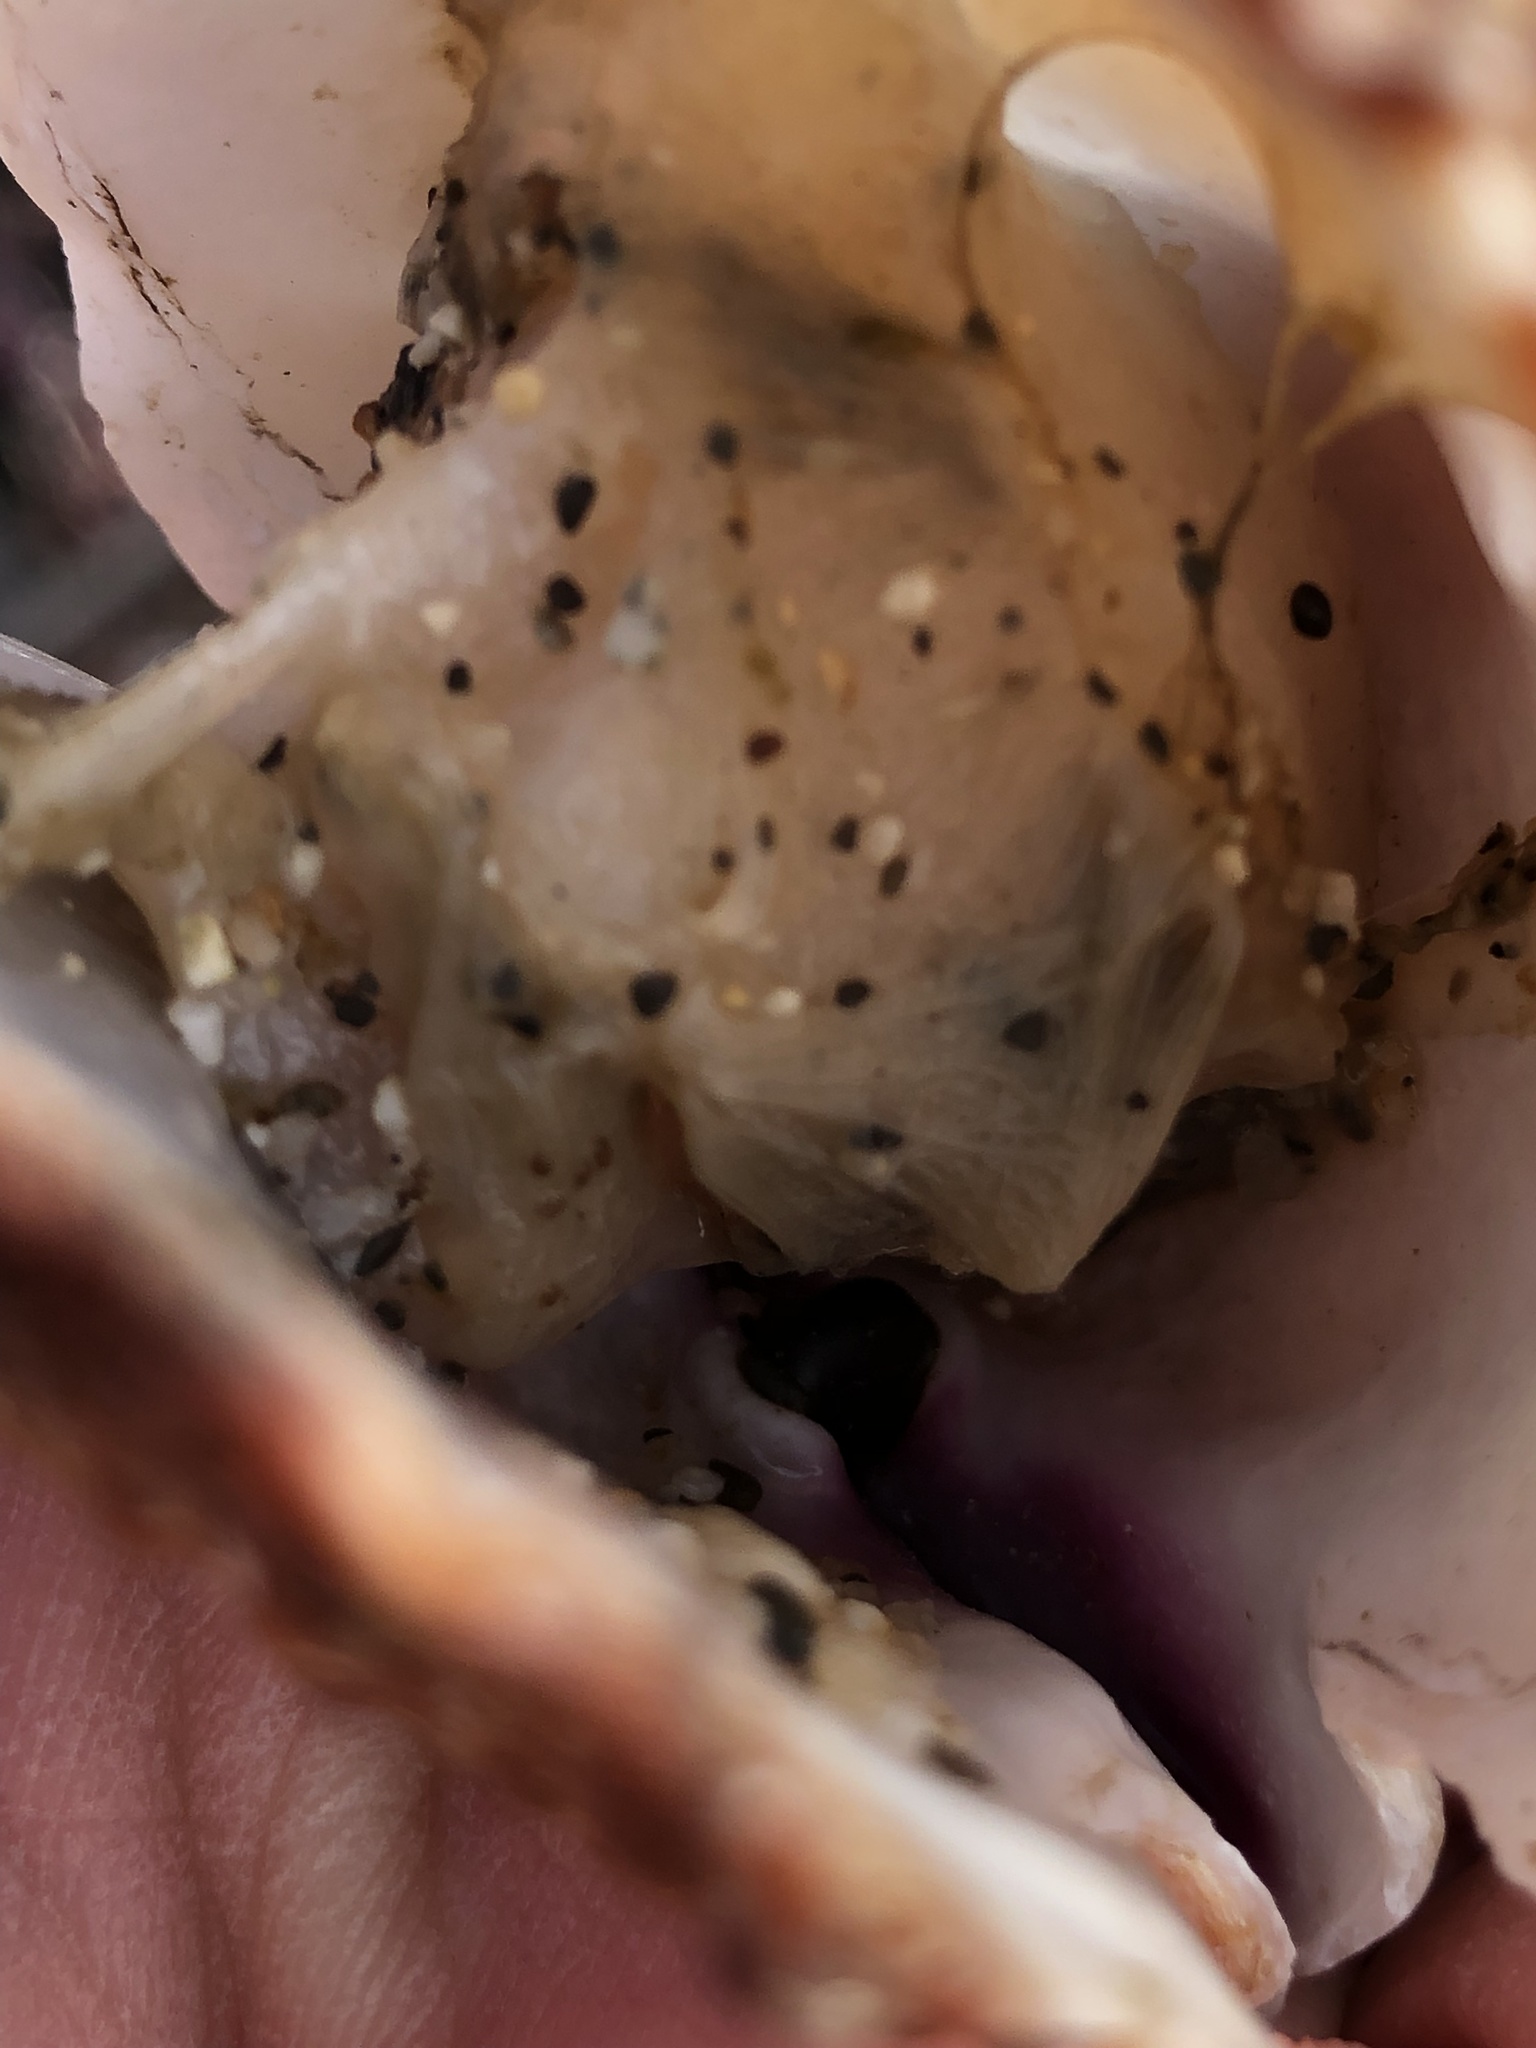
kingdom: Animalia
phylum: Mollusca
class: Bivalvia
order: Pectinida
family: Pectinidae
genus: Crassadoma
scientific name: Crassadoma gigantea
